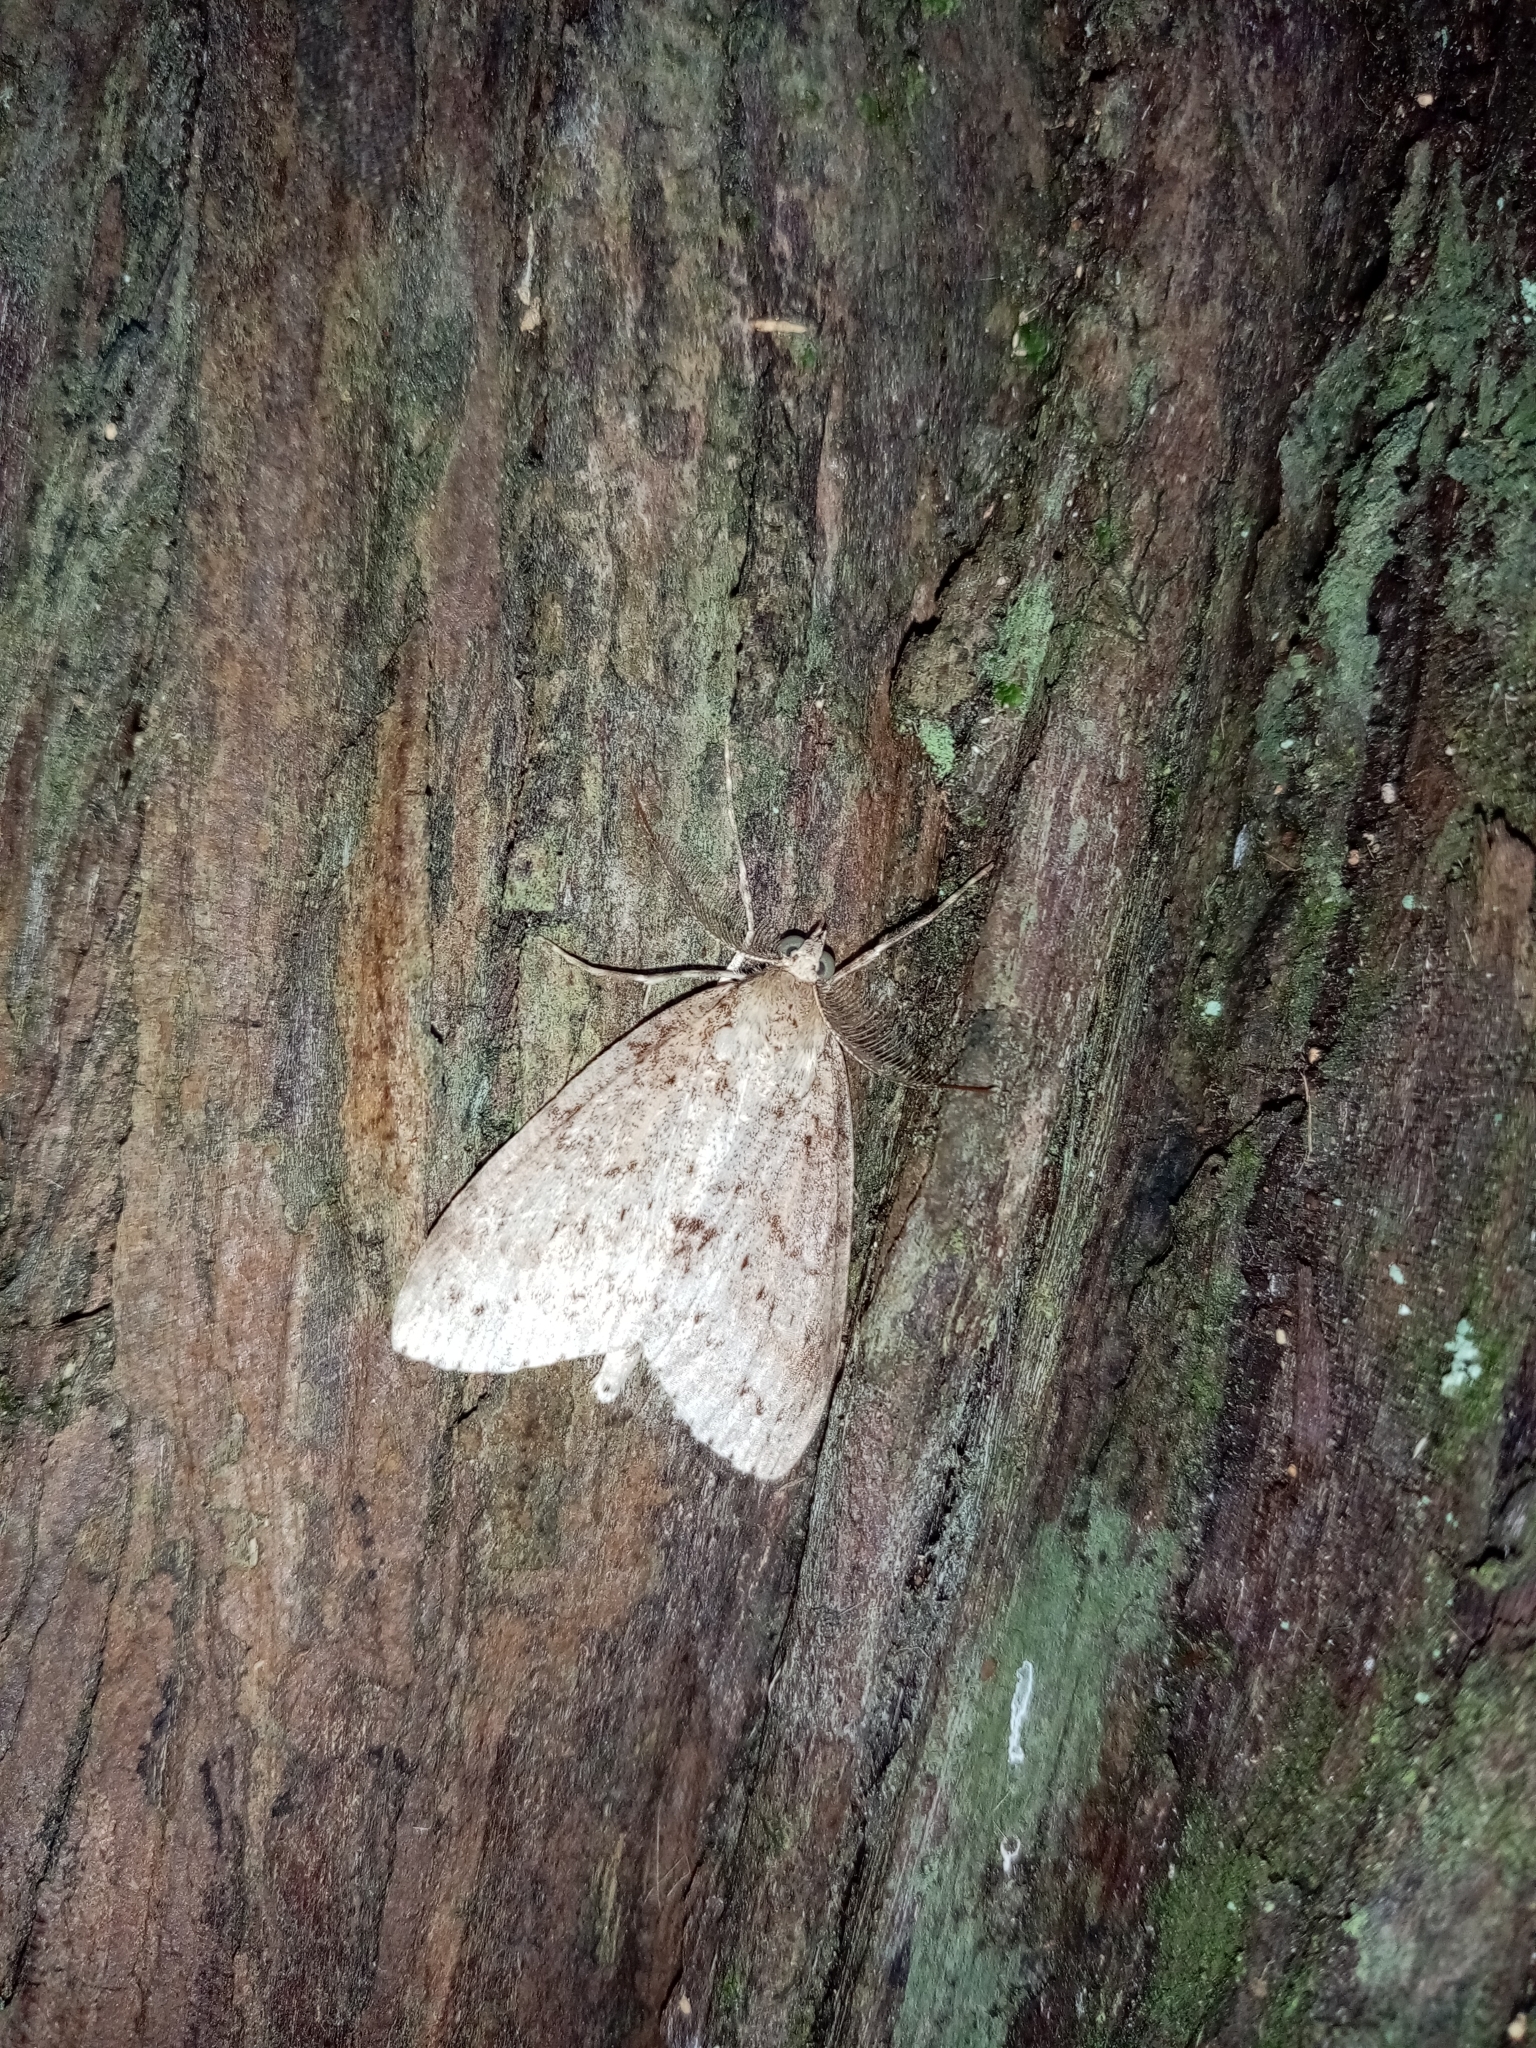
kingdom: Animalia
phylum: Arthropoda
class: Insecta
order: Lepidoptera
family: Geometridae
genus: Pseudocoremia
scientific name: Pseudocoremia fenerata
